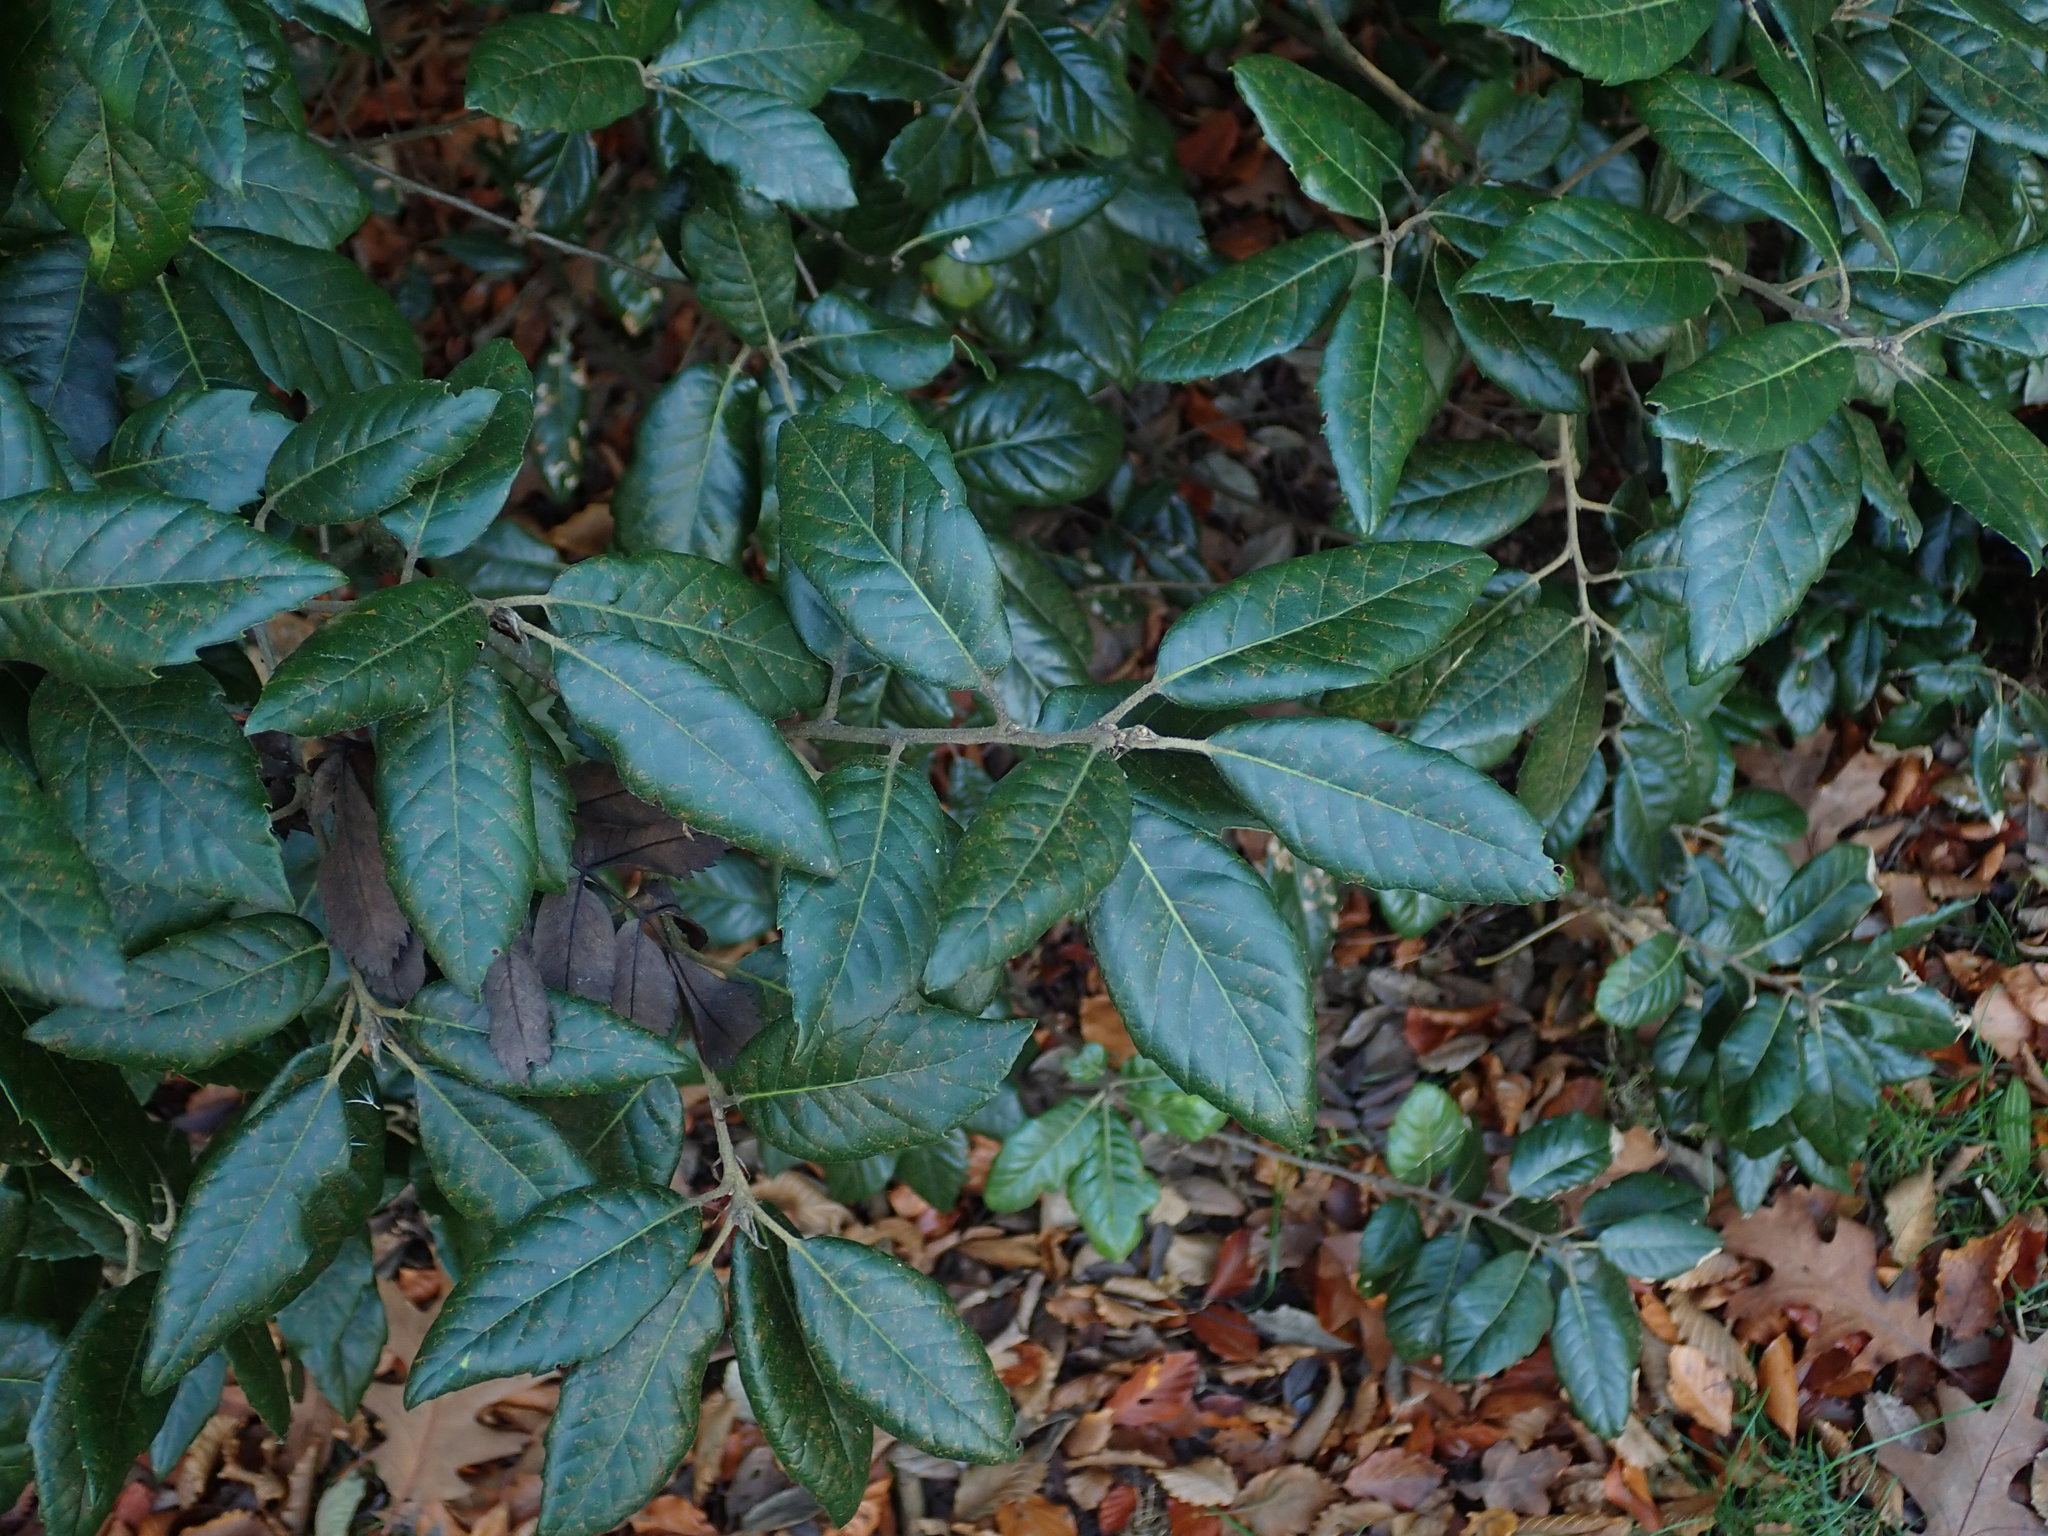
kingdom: Plantae
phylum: Tracheophyta
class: Magnoliopsida
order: Fagales
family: Fagaceae
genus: Quercus
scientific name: Quercus ilex
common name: Evergreen oak
